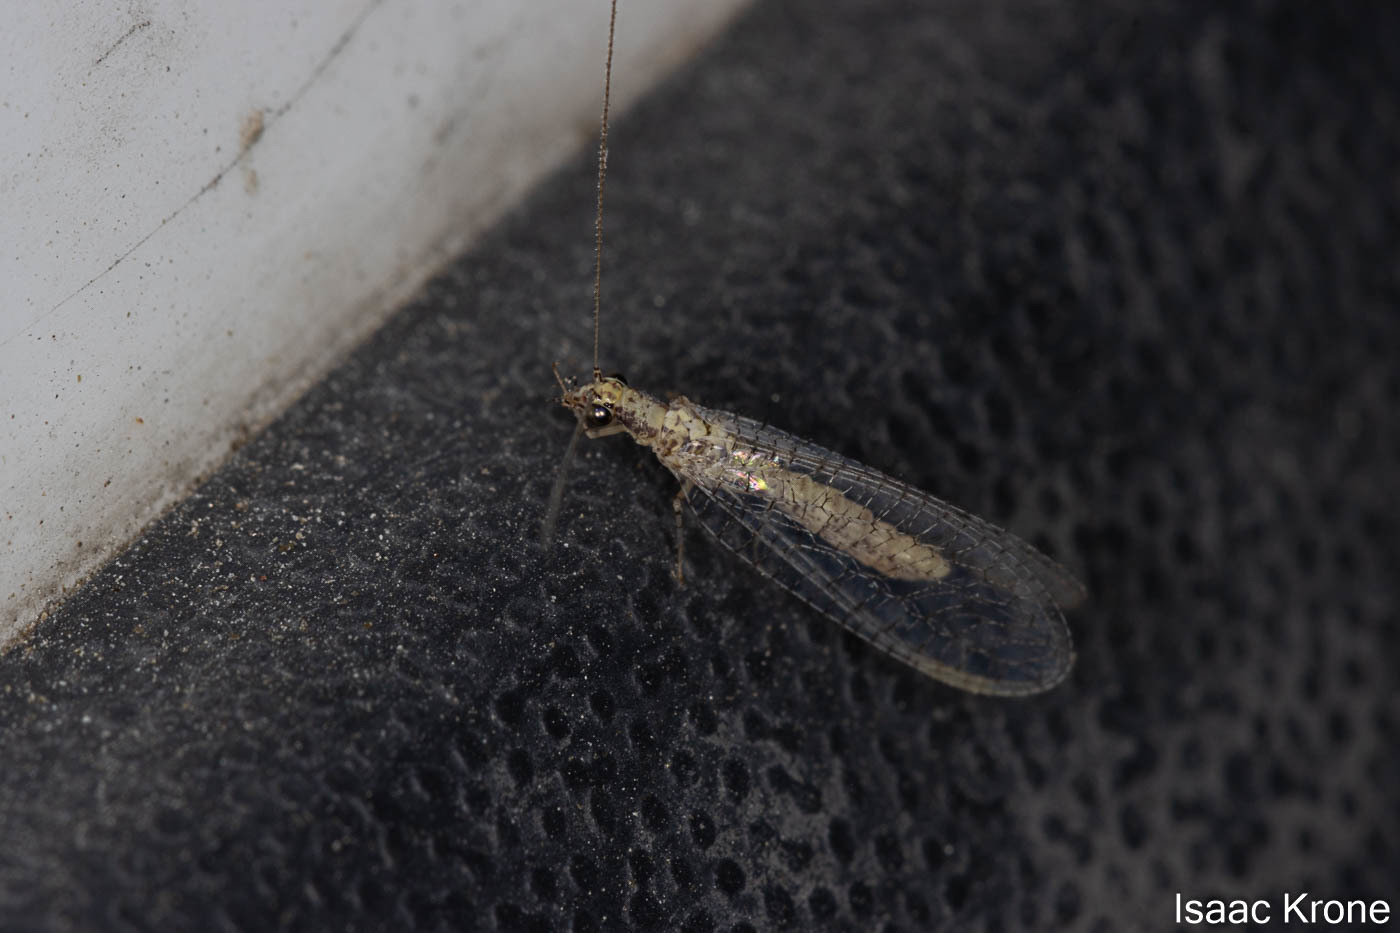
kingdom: Animalia
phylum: Arthropoda
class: Insecta
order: Neuroptera
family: Chrysopidae
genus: Eremochrysa
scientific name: Eremochrysa tibialis
